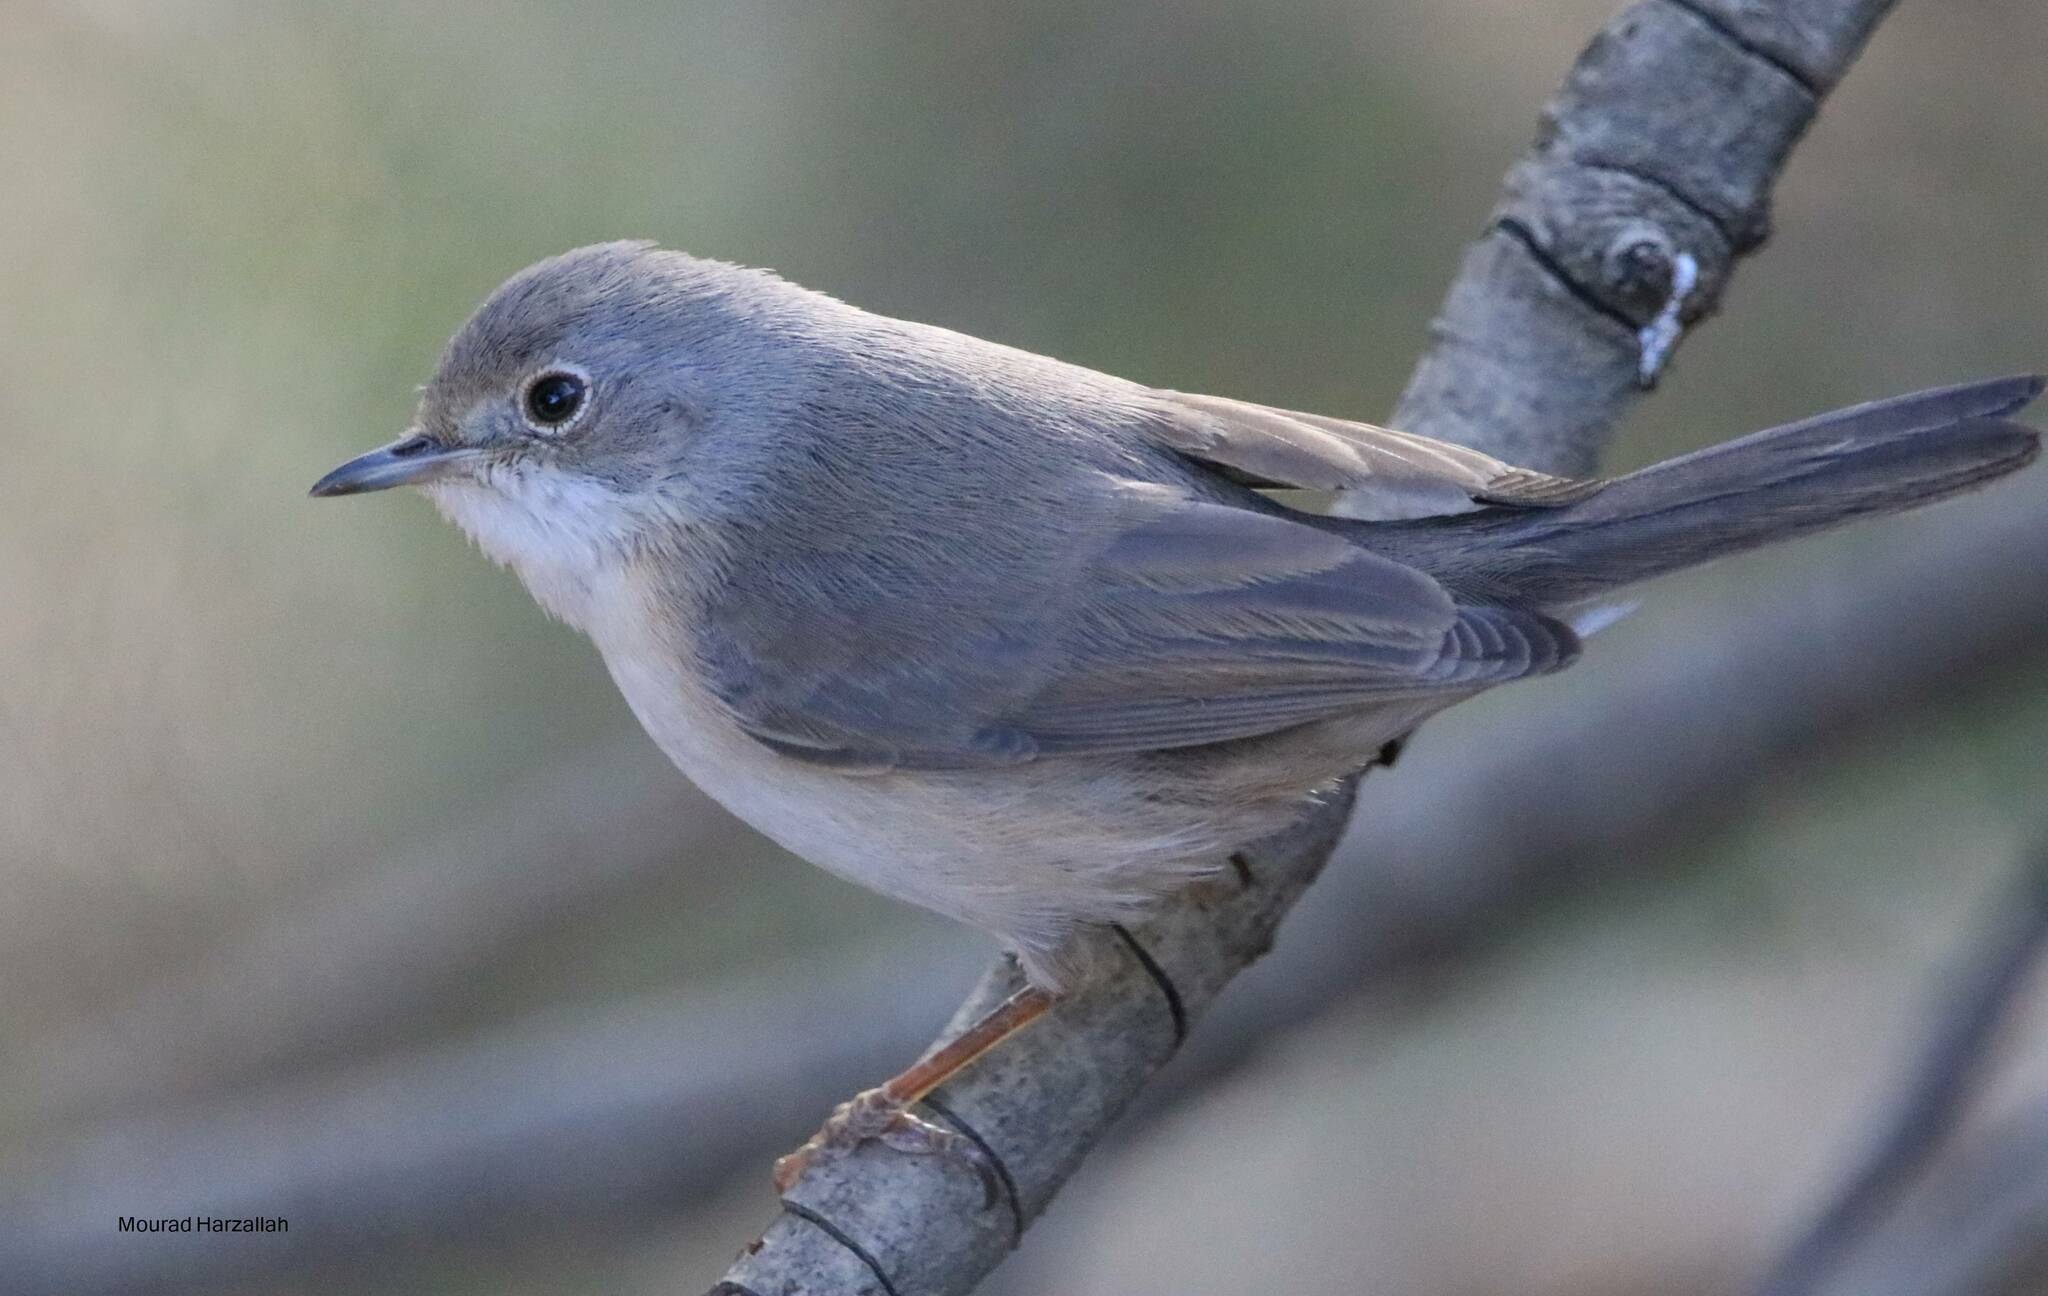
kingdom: Animalia
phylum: Chordata
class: Aves
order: Passeriformes
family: Sylviidae
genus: Curruca
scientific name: Curruca iberiae
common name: Western subalpine warbler
